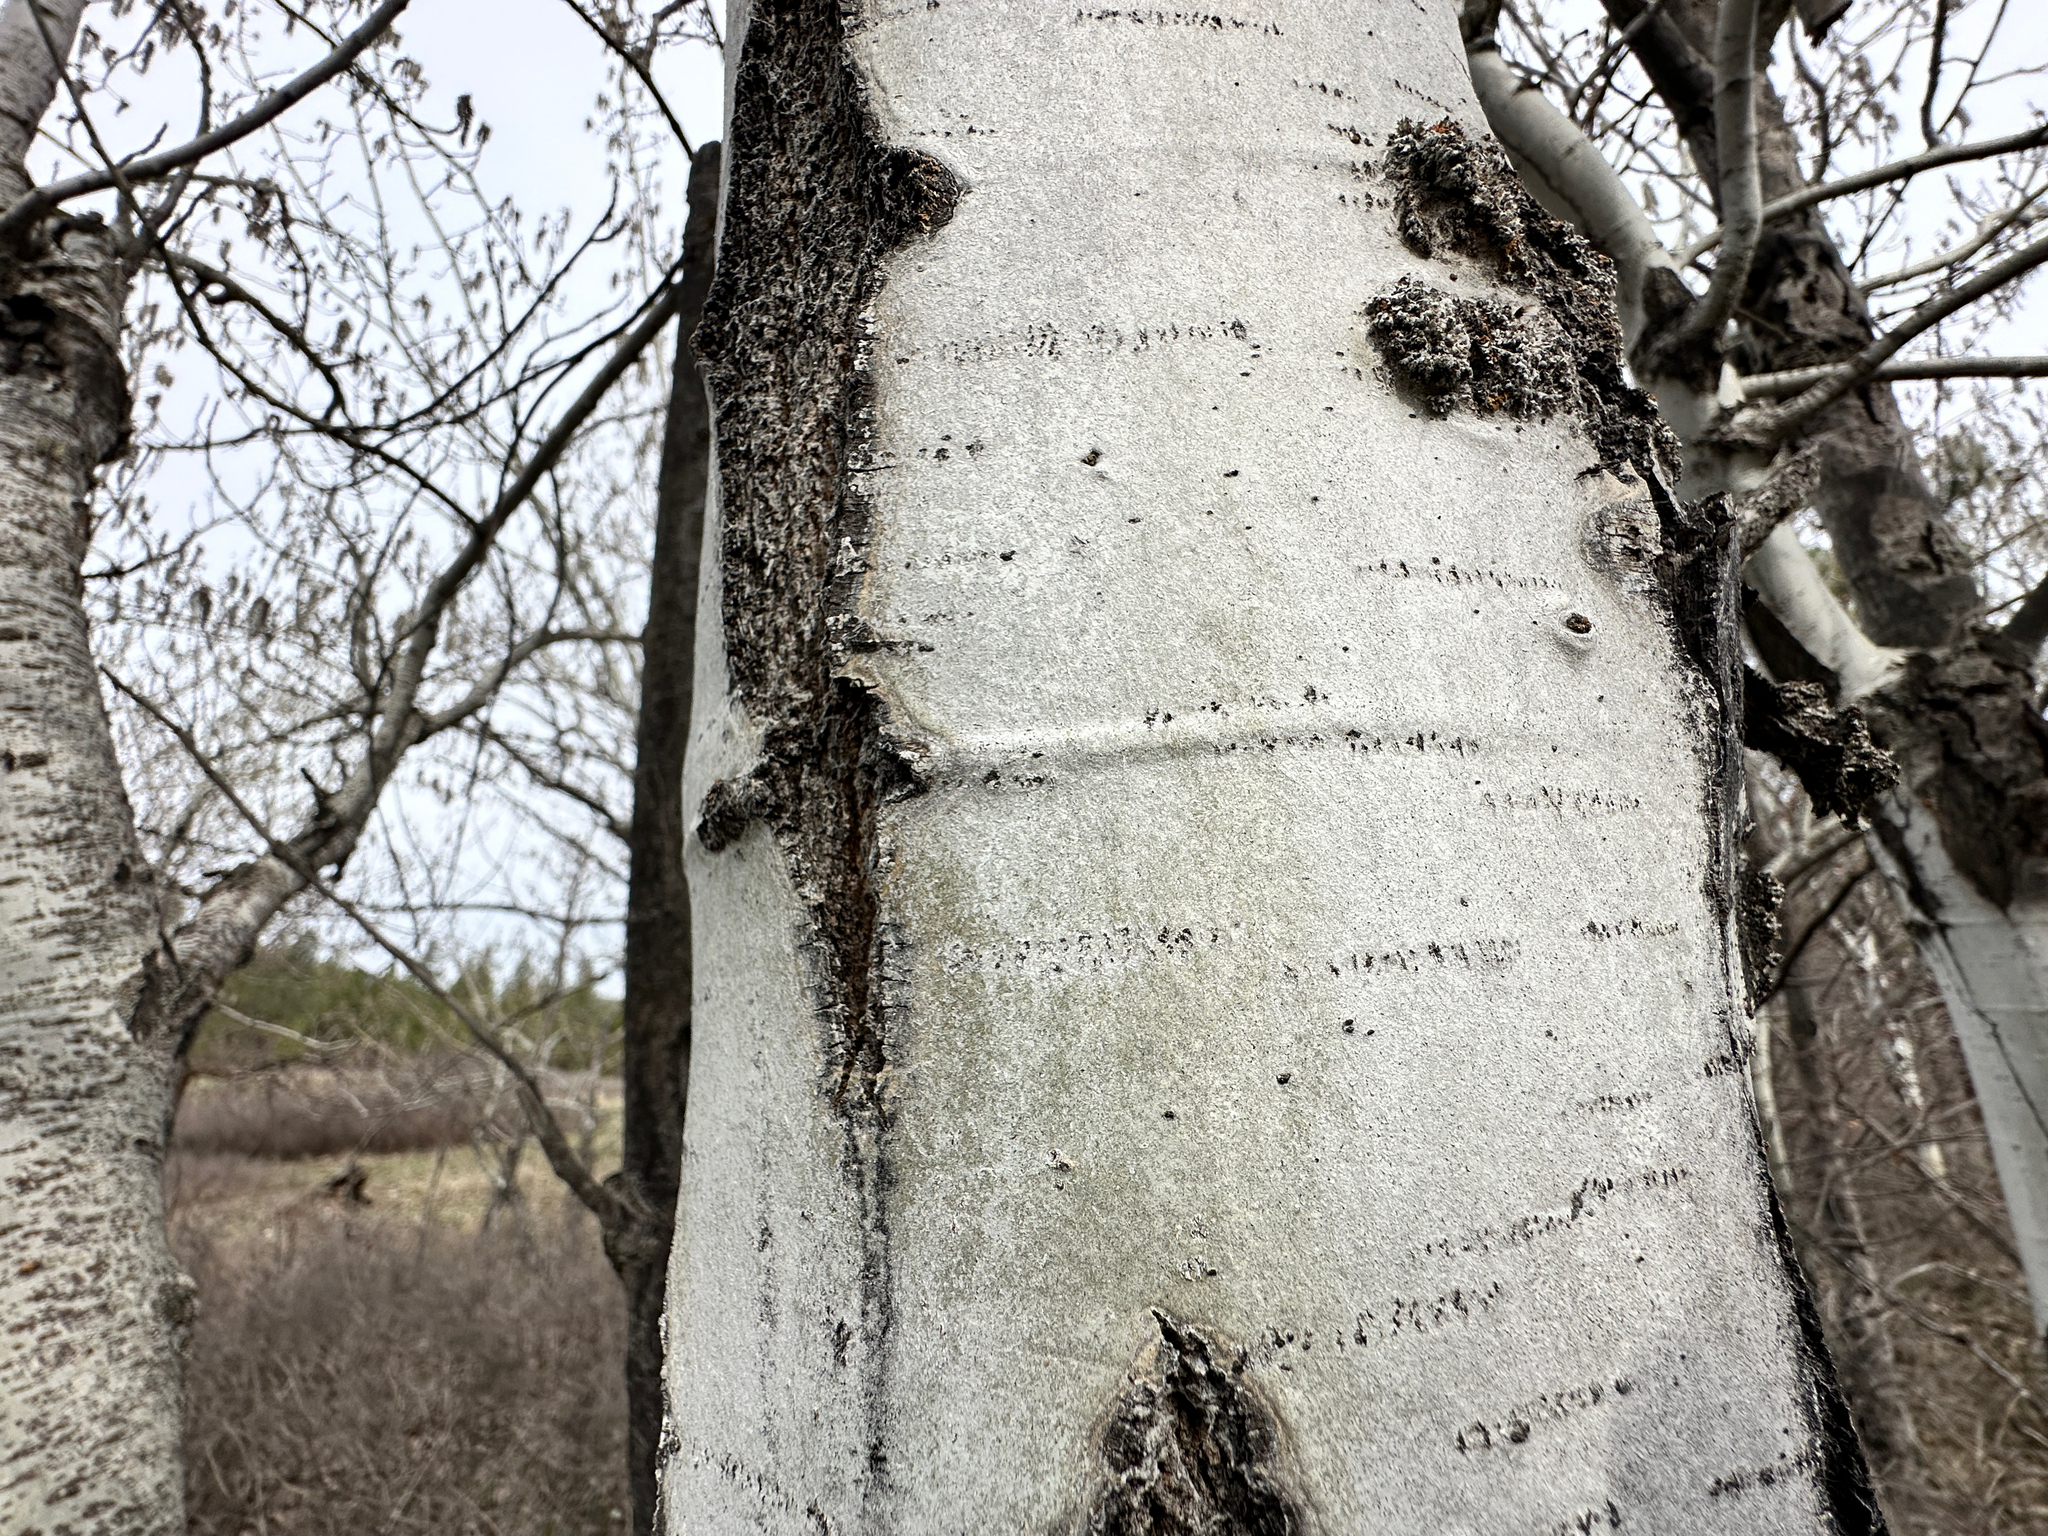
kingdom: Plantae
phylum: Tracheophyta
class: Magnoliopsida
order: Malpighiales
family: Salicaceae
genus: Populus
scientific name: Populus tremuloides
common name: Quaking aspen
